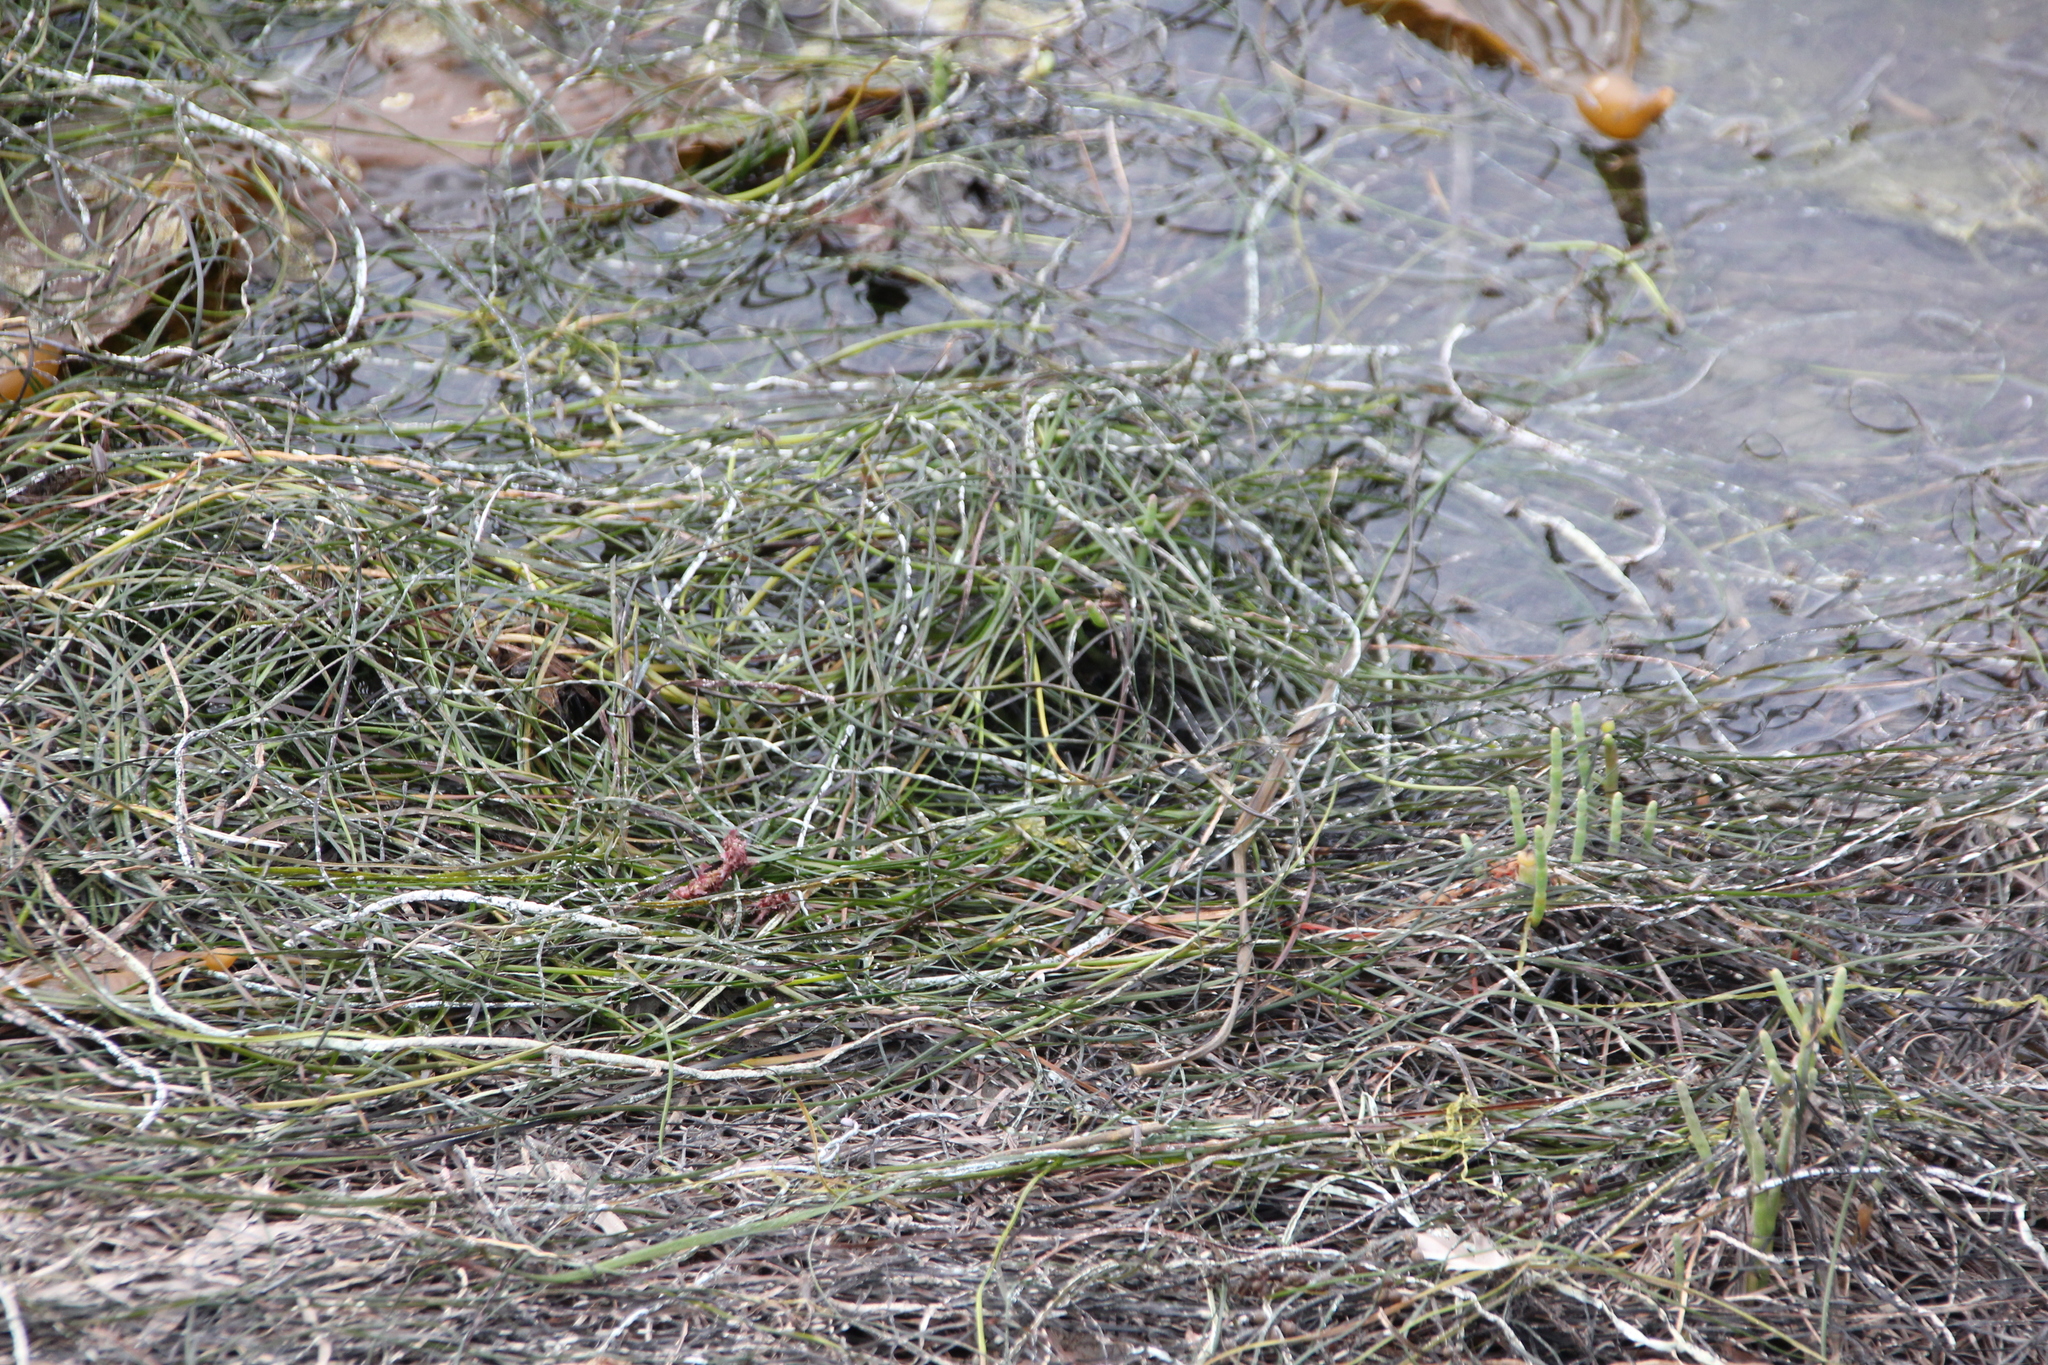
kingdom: Plantae
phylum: Tracheophyta
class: Liliopsida
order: Alismatales
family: Zosteraceae
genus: Zostera
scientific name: Zostera marina
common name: Eelgrass
